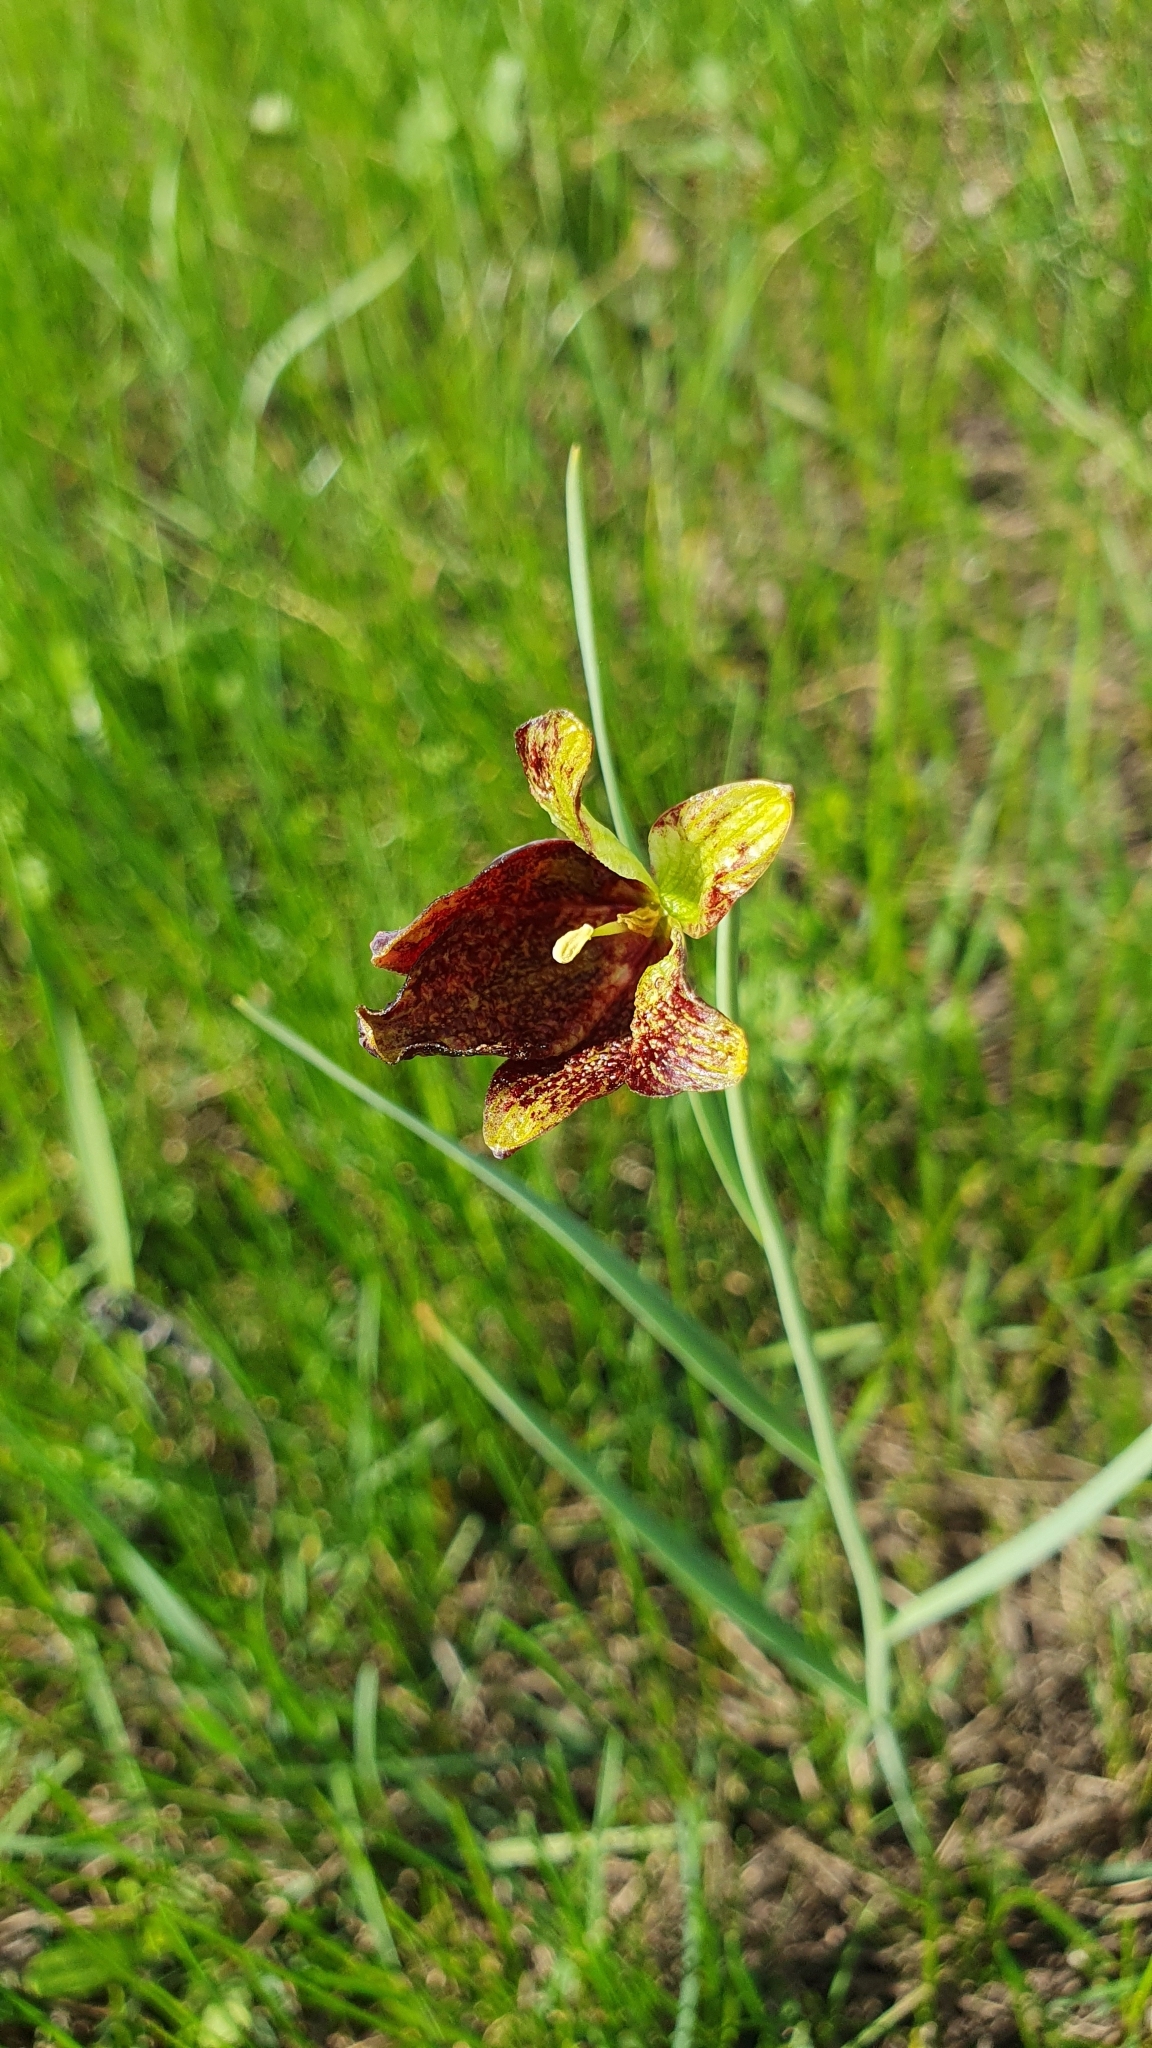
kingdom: Plantae
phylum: Tracheophyta
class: Liliopsida
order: Liliales
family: Liliaceae
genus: Fritillaria
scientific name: Fritillaria meleagroides
